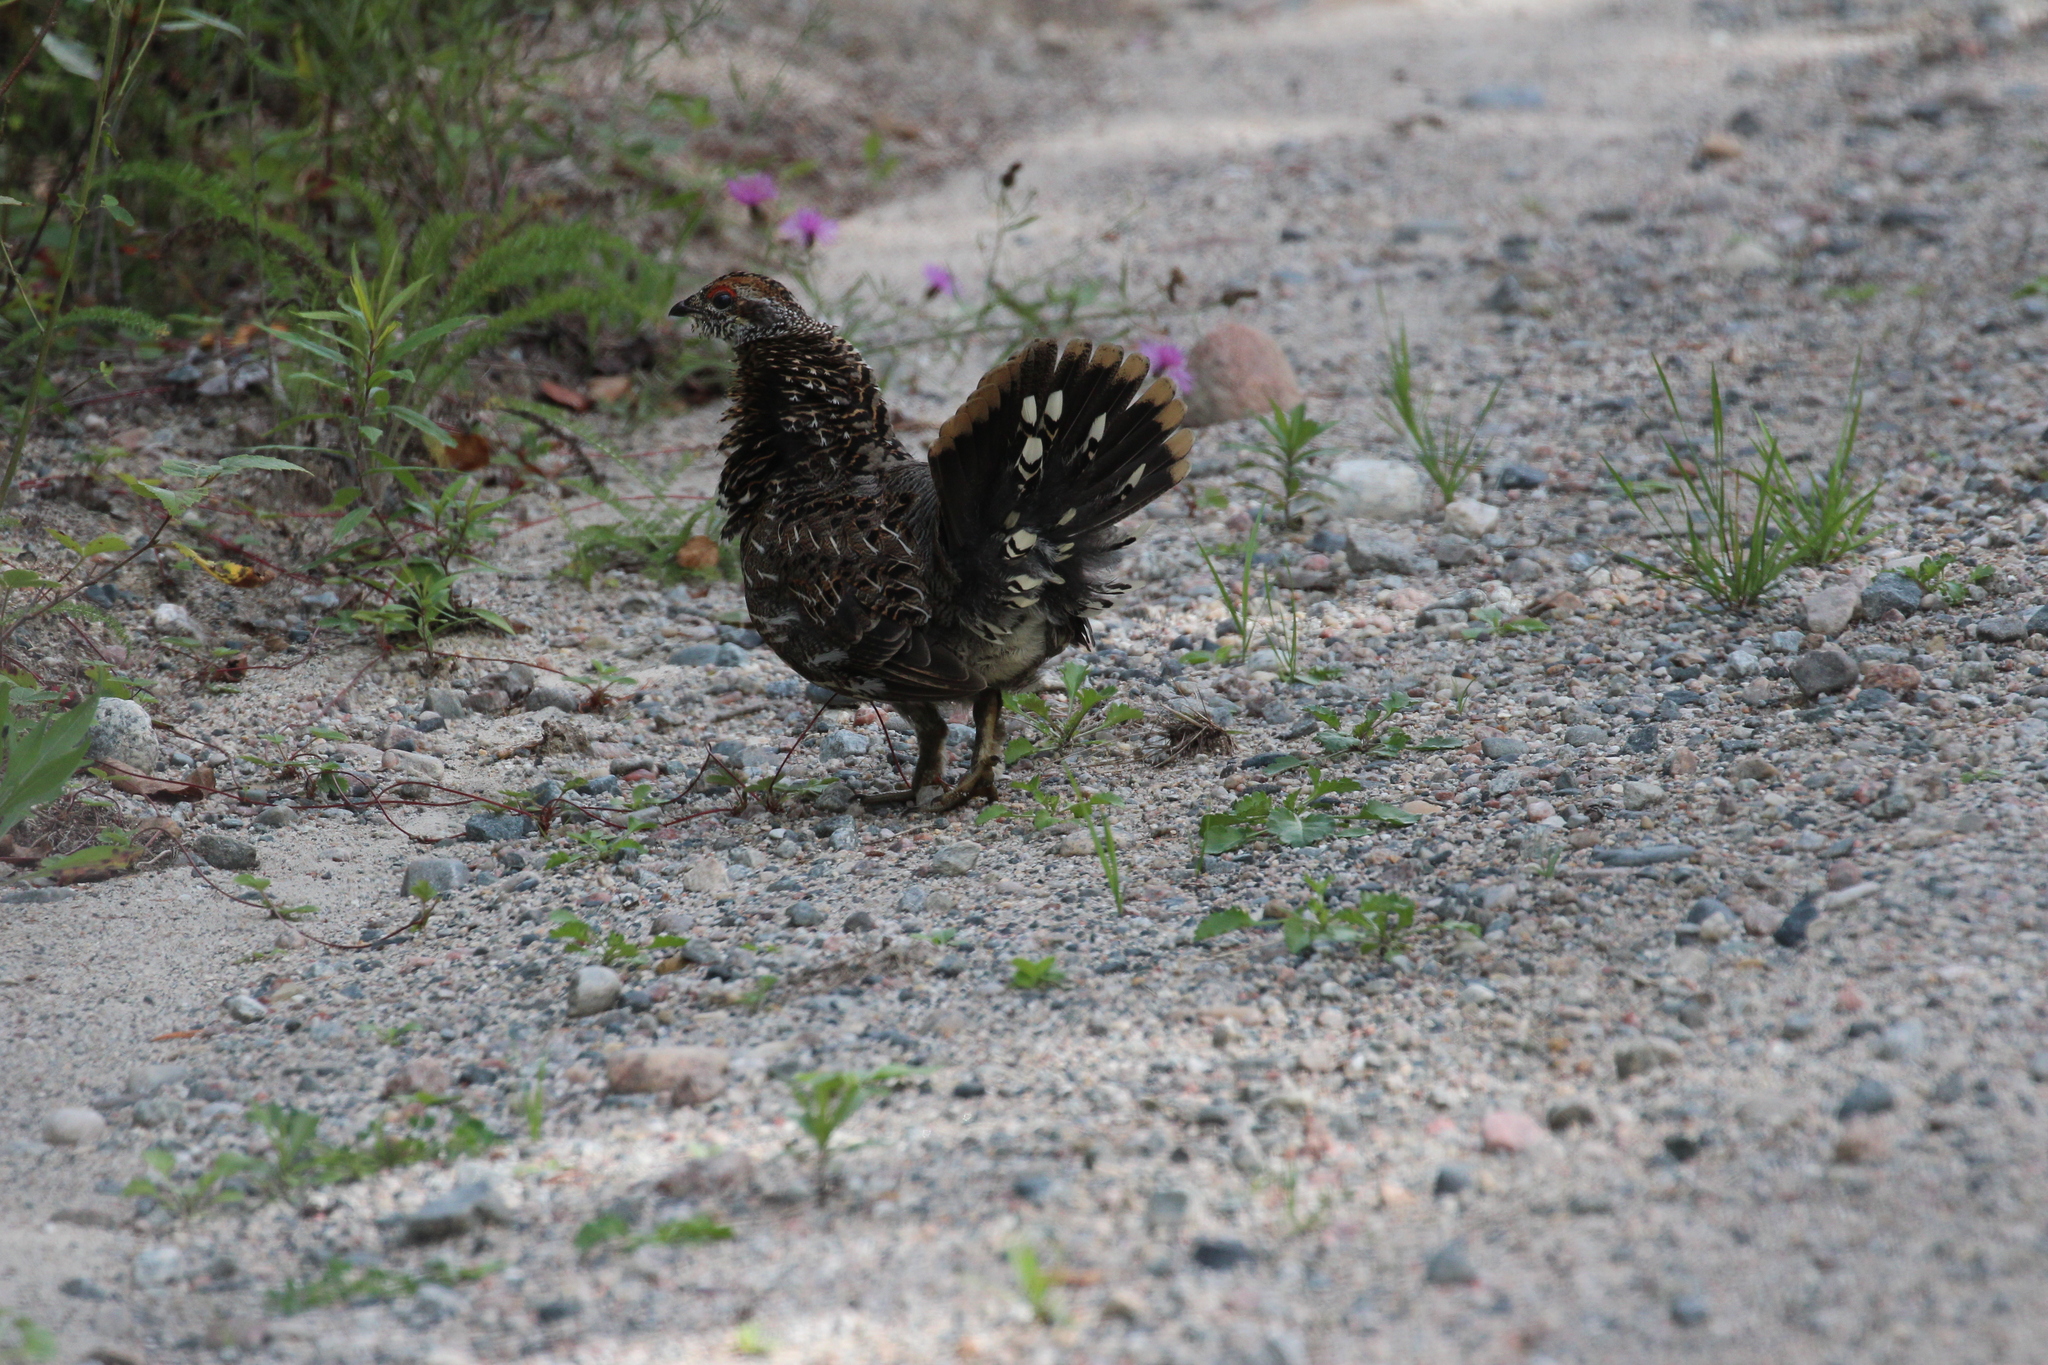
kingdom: Animalia
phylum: Chordata
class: Aves
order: Galliformes
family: Phasianidae
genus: Canachites
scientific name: Canachites canadensis
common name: Spruce grouse
